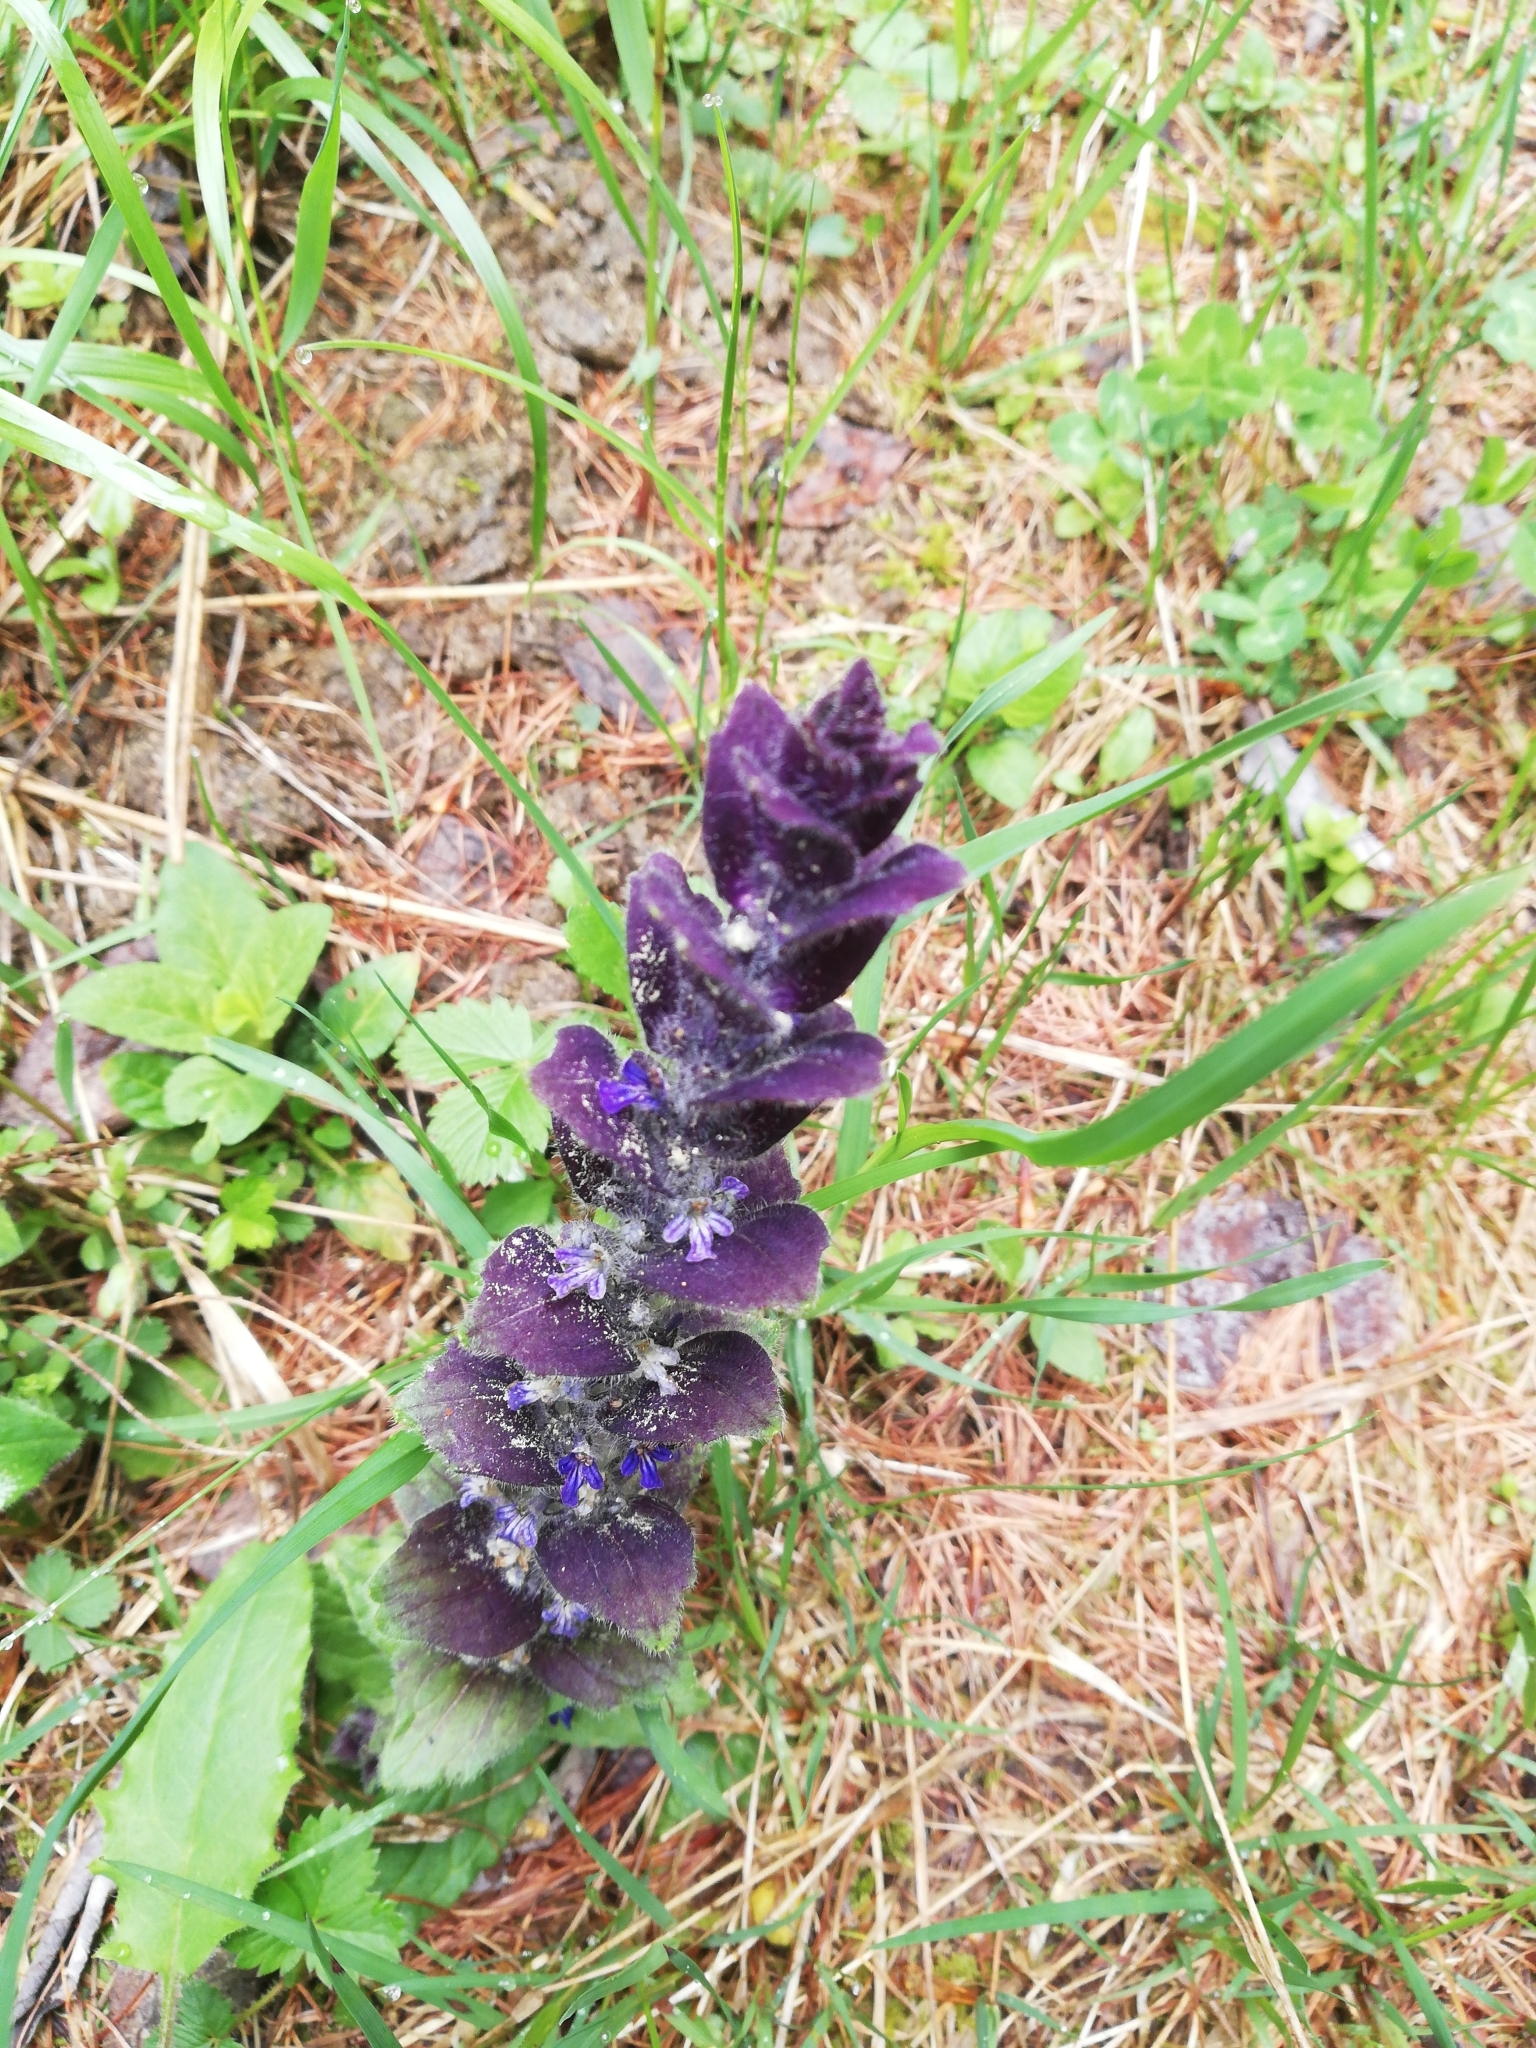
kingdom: Plantae
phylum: Tracheophyta
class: Magnoliopsida
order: Lamiales
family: Lamiaceae
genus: Ajuga
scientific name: Ajuga pyramidalis
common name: Pyramid bugle
